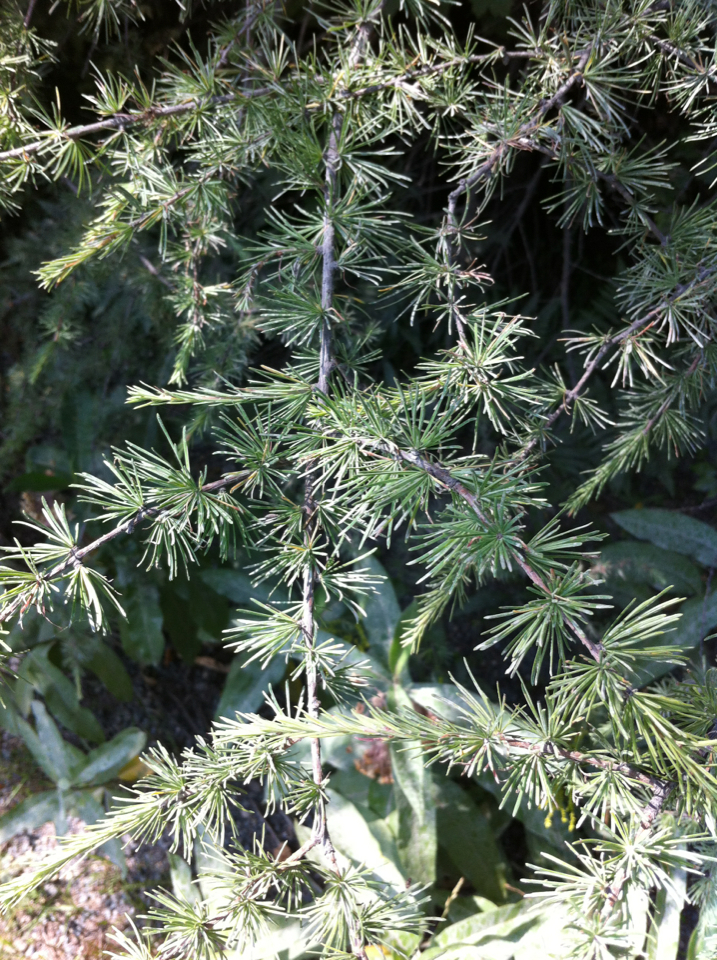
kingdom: Plantae
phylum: Tracheophyta
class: Pinopsida
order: Pinales
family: Pinaceae
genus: Larix
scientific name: Larix laricina
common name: American larch
